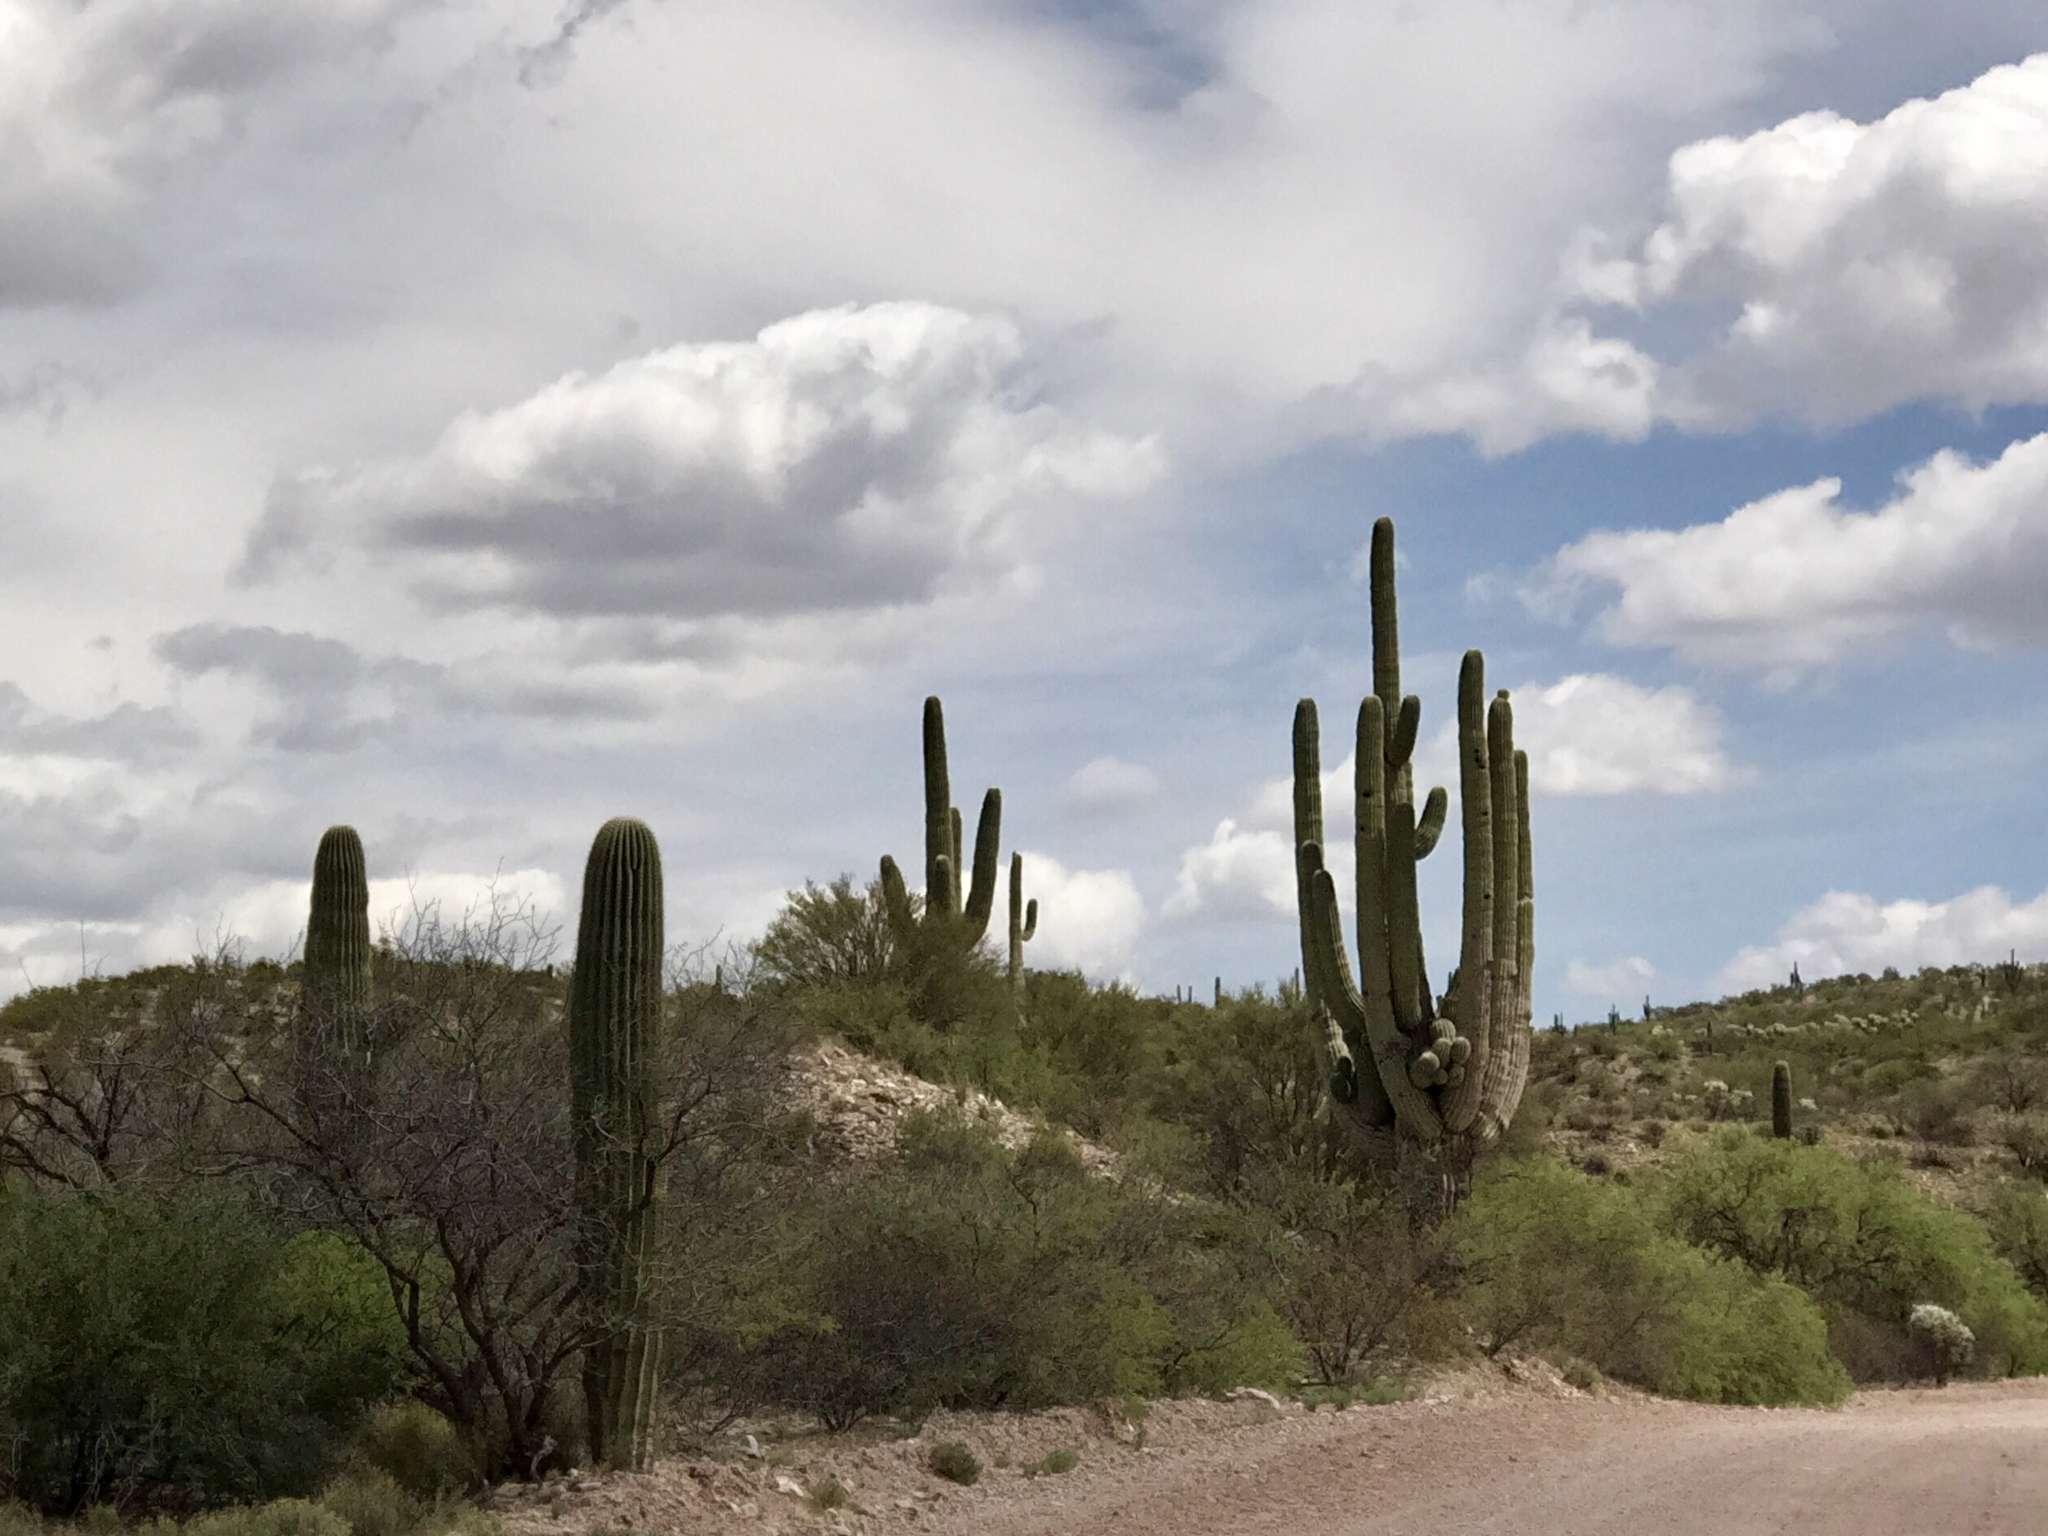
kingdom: Plantae
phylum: Tracheophyta
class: Magnoliopsida
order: Caryophyllales
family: Cactaceae
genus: Carnegiea
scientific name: Carnegiea gigantea
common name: Saguaro
